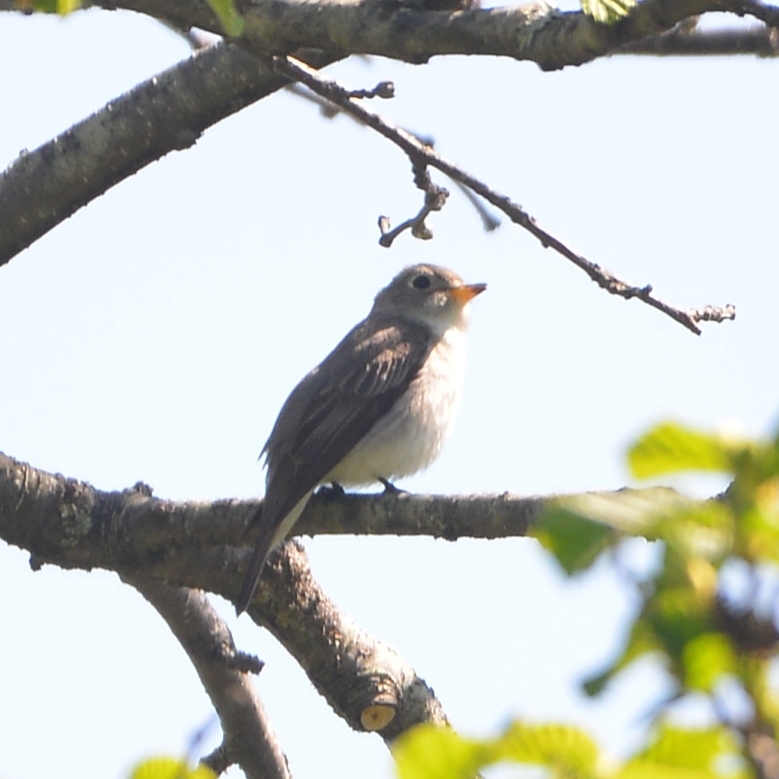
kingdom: Animalia
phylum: Chordata
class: Aves
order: Passeriformes
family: Muscicapidae
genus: Muscicapa
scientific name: Muscicapa latirostris
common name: Asian brown flycatcher
